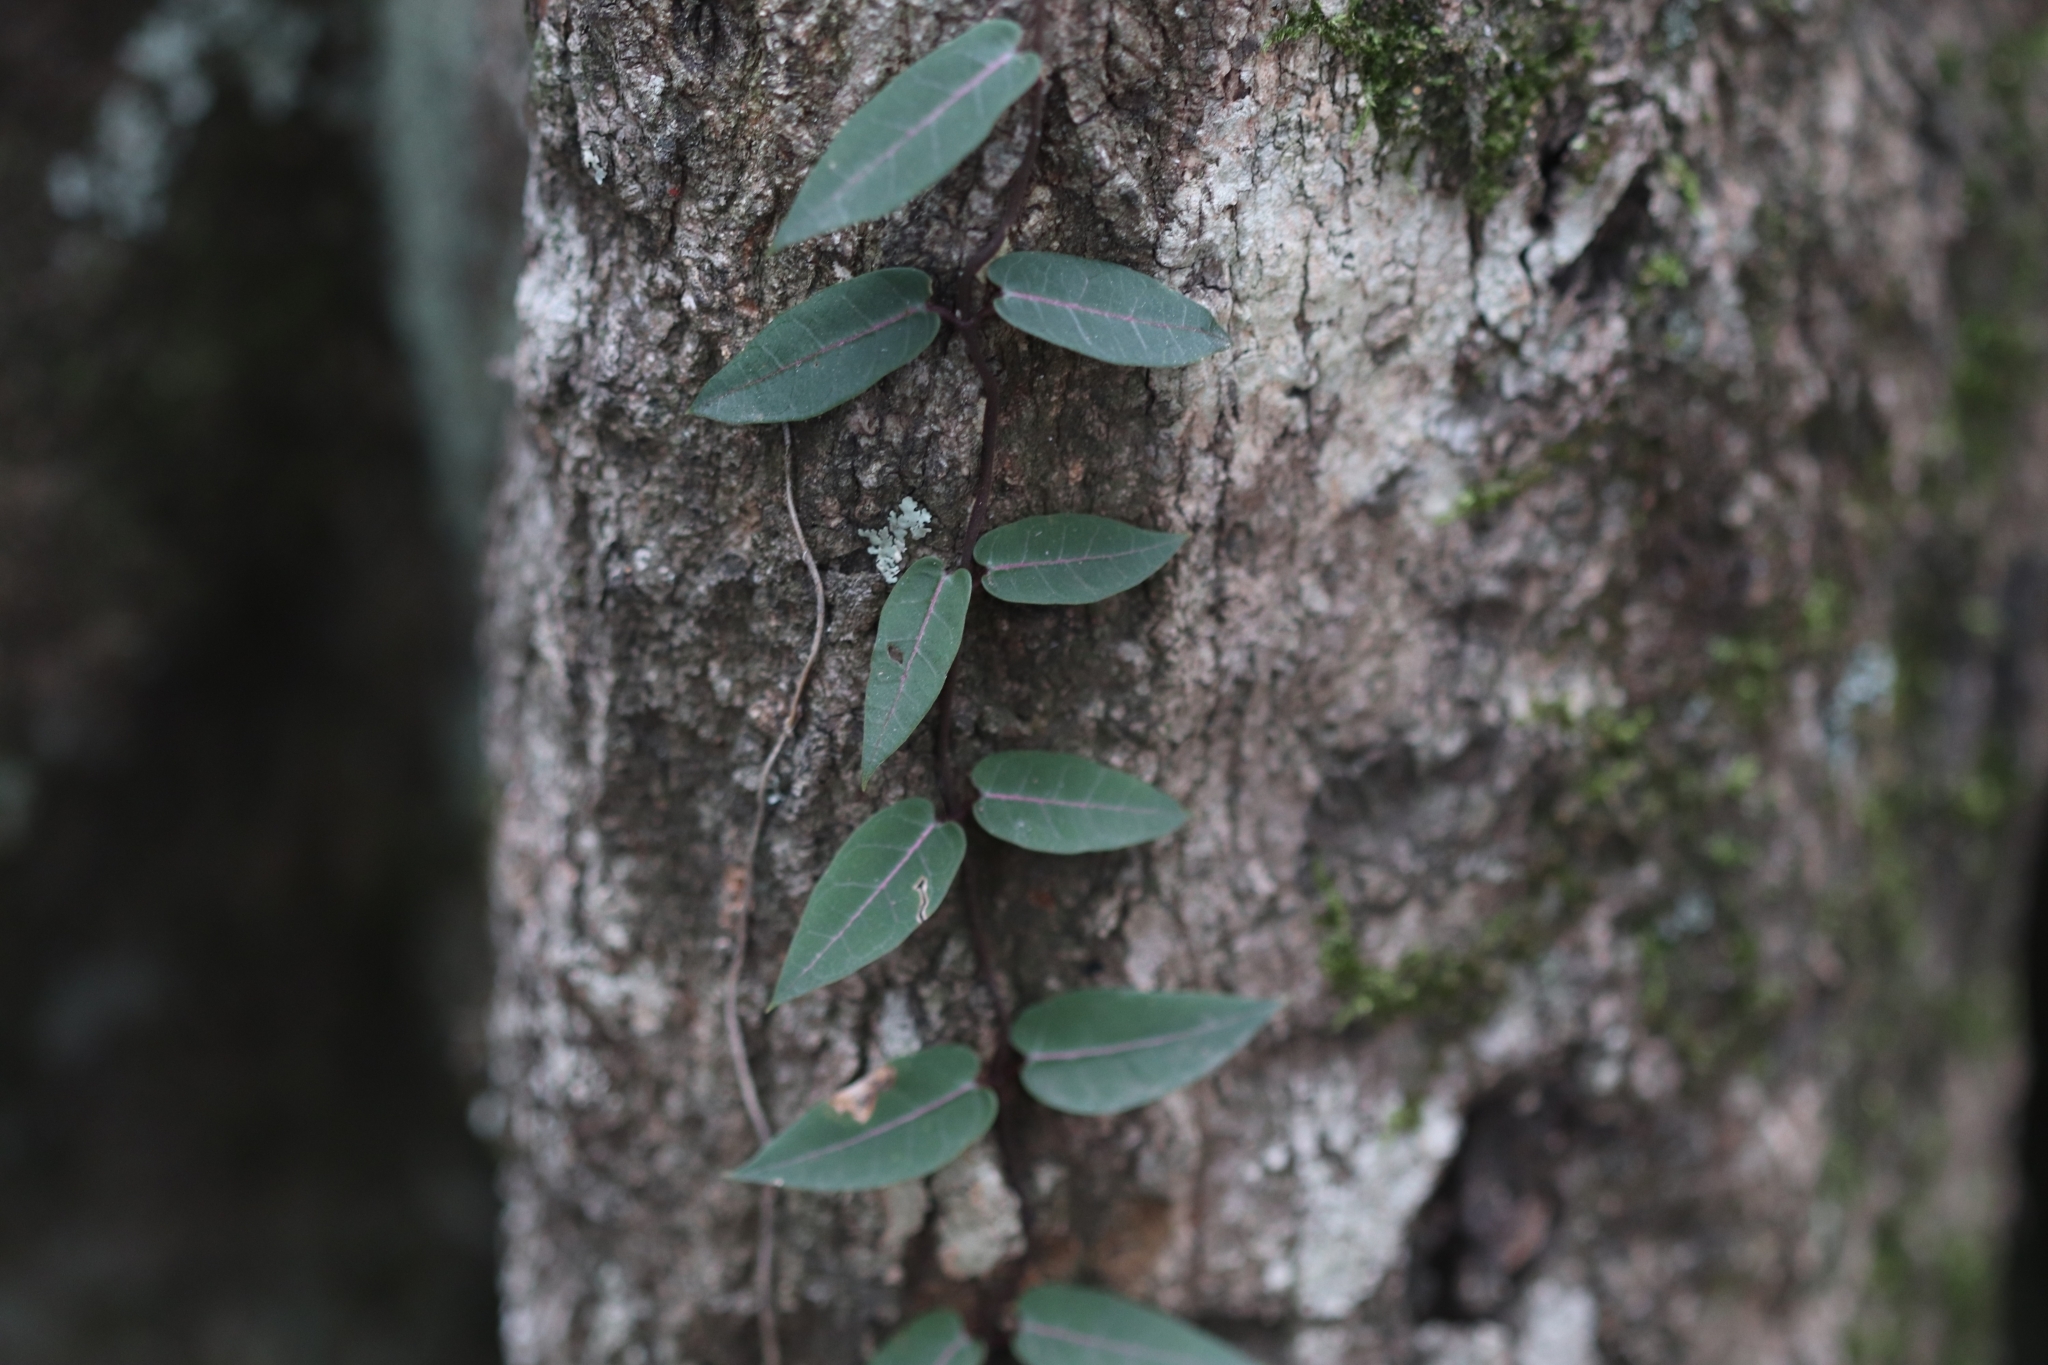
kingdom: Plantae
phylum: Tracheophyta
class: Magnoliopsida
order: Gentianales
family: Apocynaceae
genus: Parsonsia
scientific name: Parsonsia straminea
